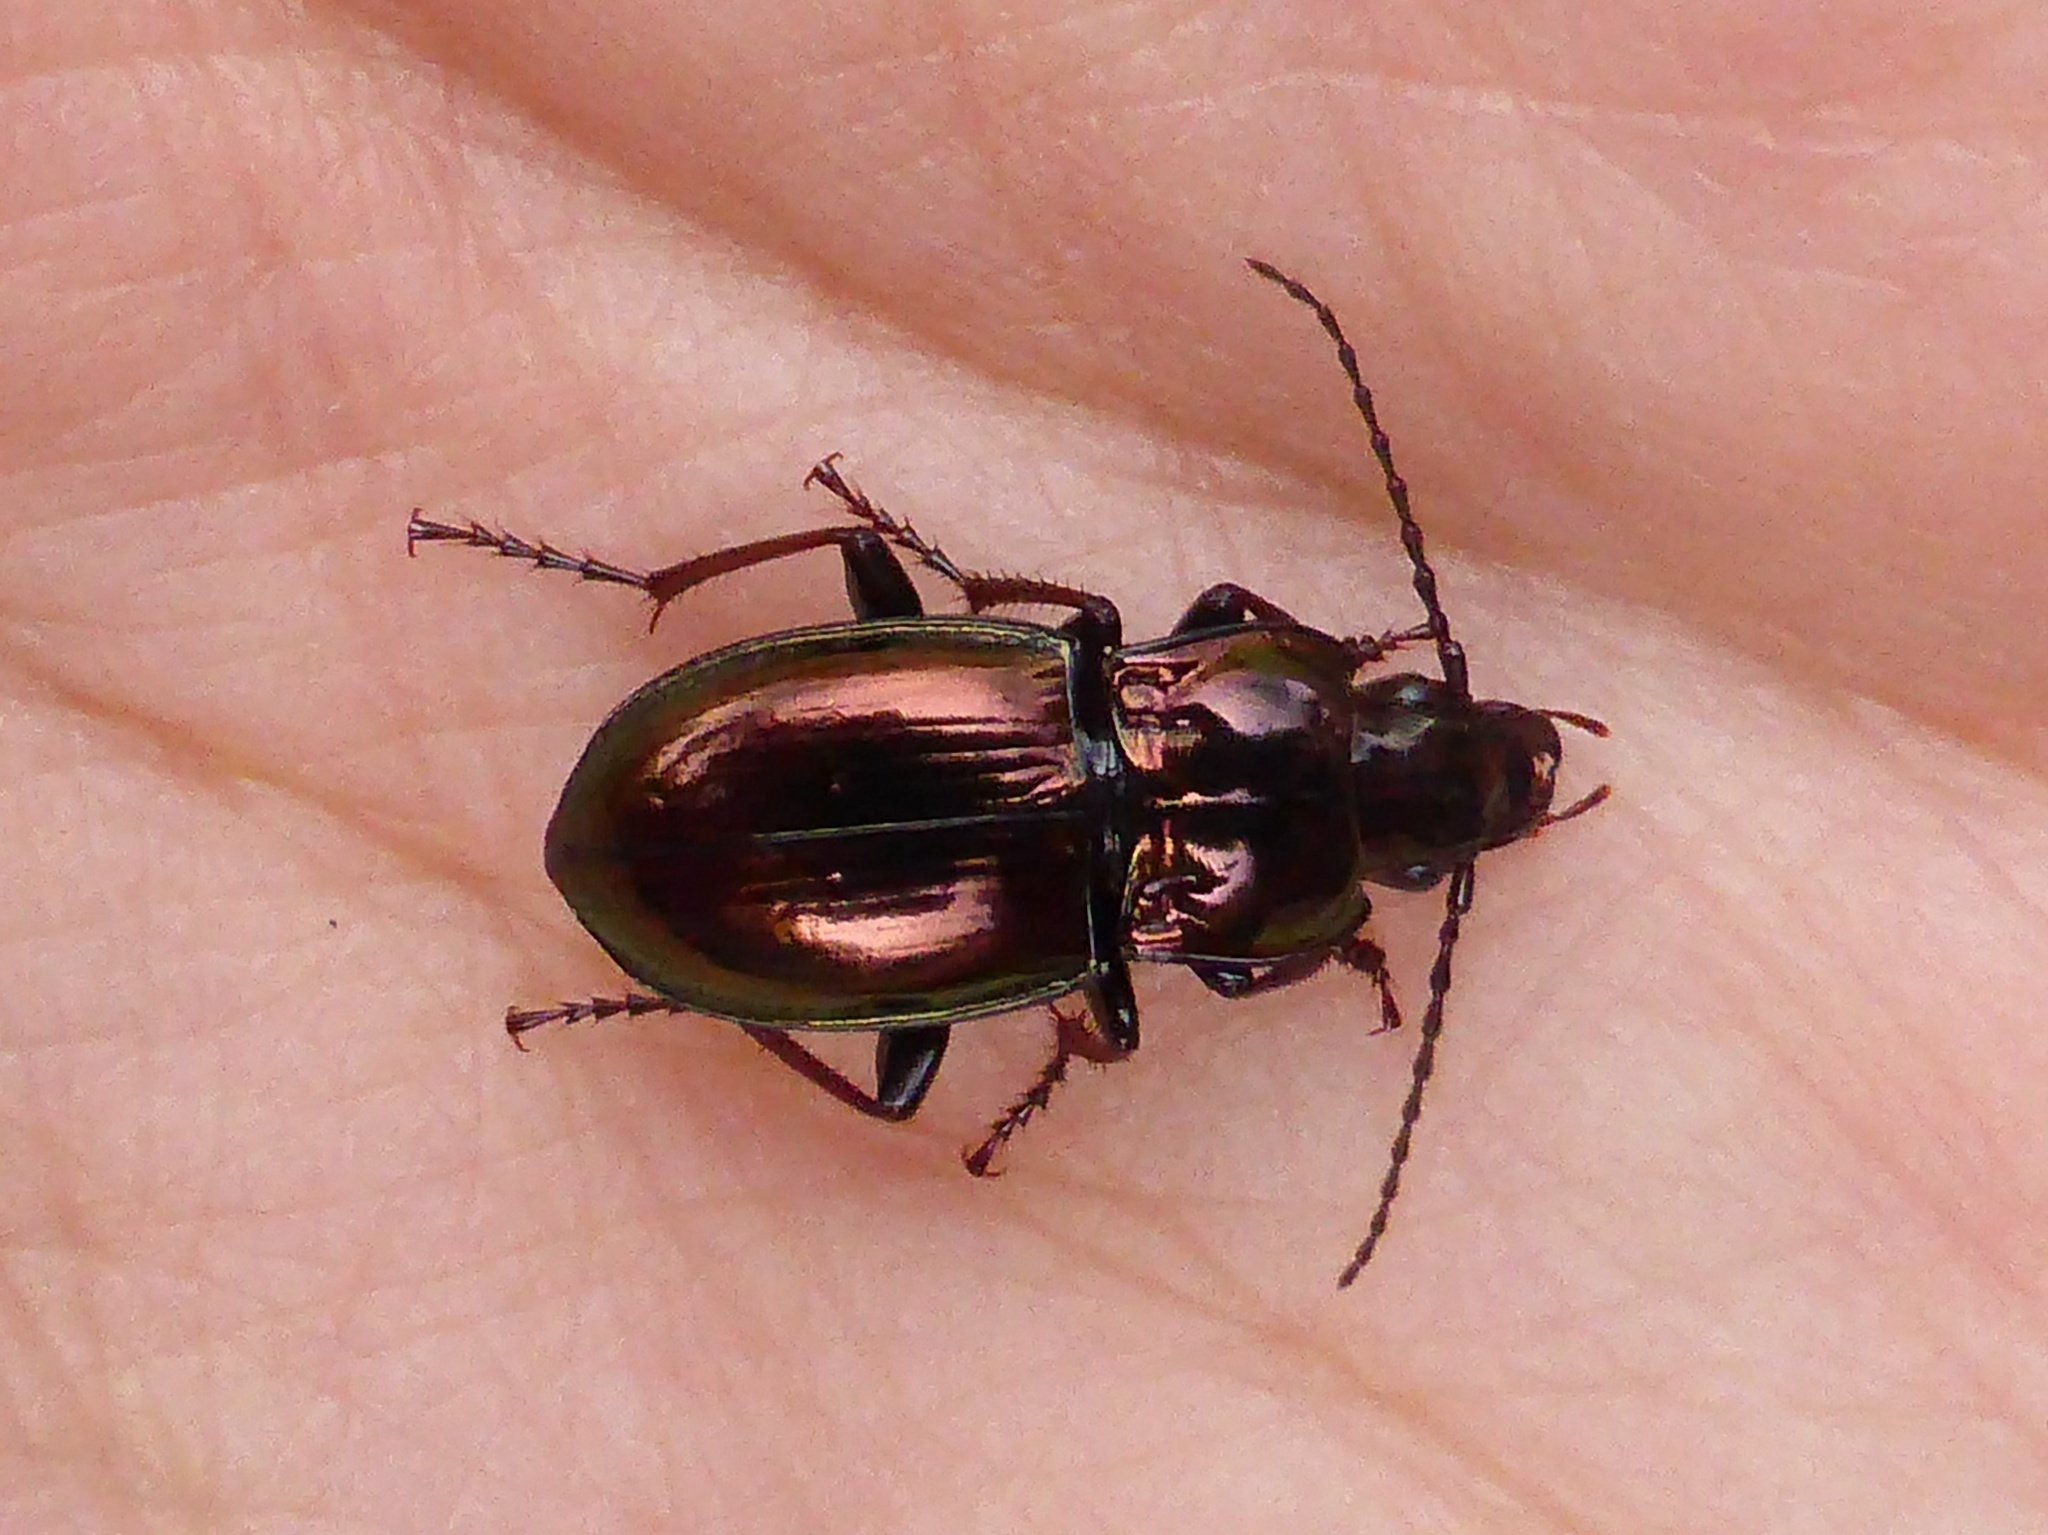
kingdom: Animalia
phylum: Arthropoda
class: Insecta
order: Coleoptera
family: Carabidae
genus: Pterostichus
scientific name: Pterostichus burmeisteri
